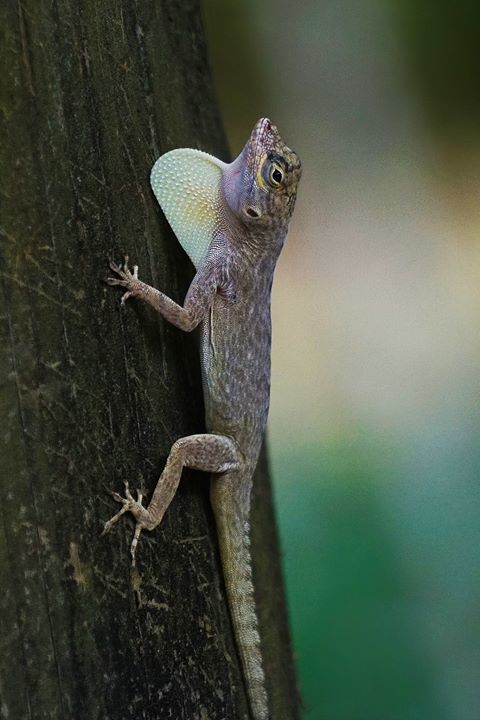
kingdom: Animalia
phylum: Chordata
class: Squamata
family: Dactyloidae
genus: Anolis
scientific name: Anolis distichus
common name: Bark anole
